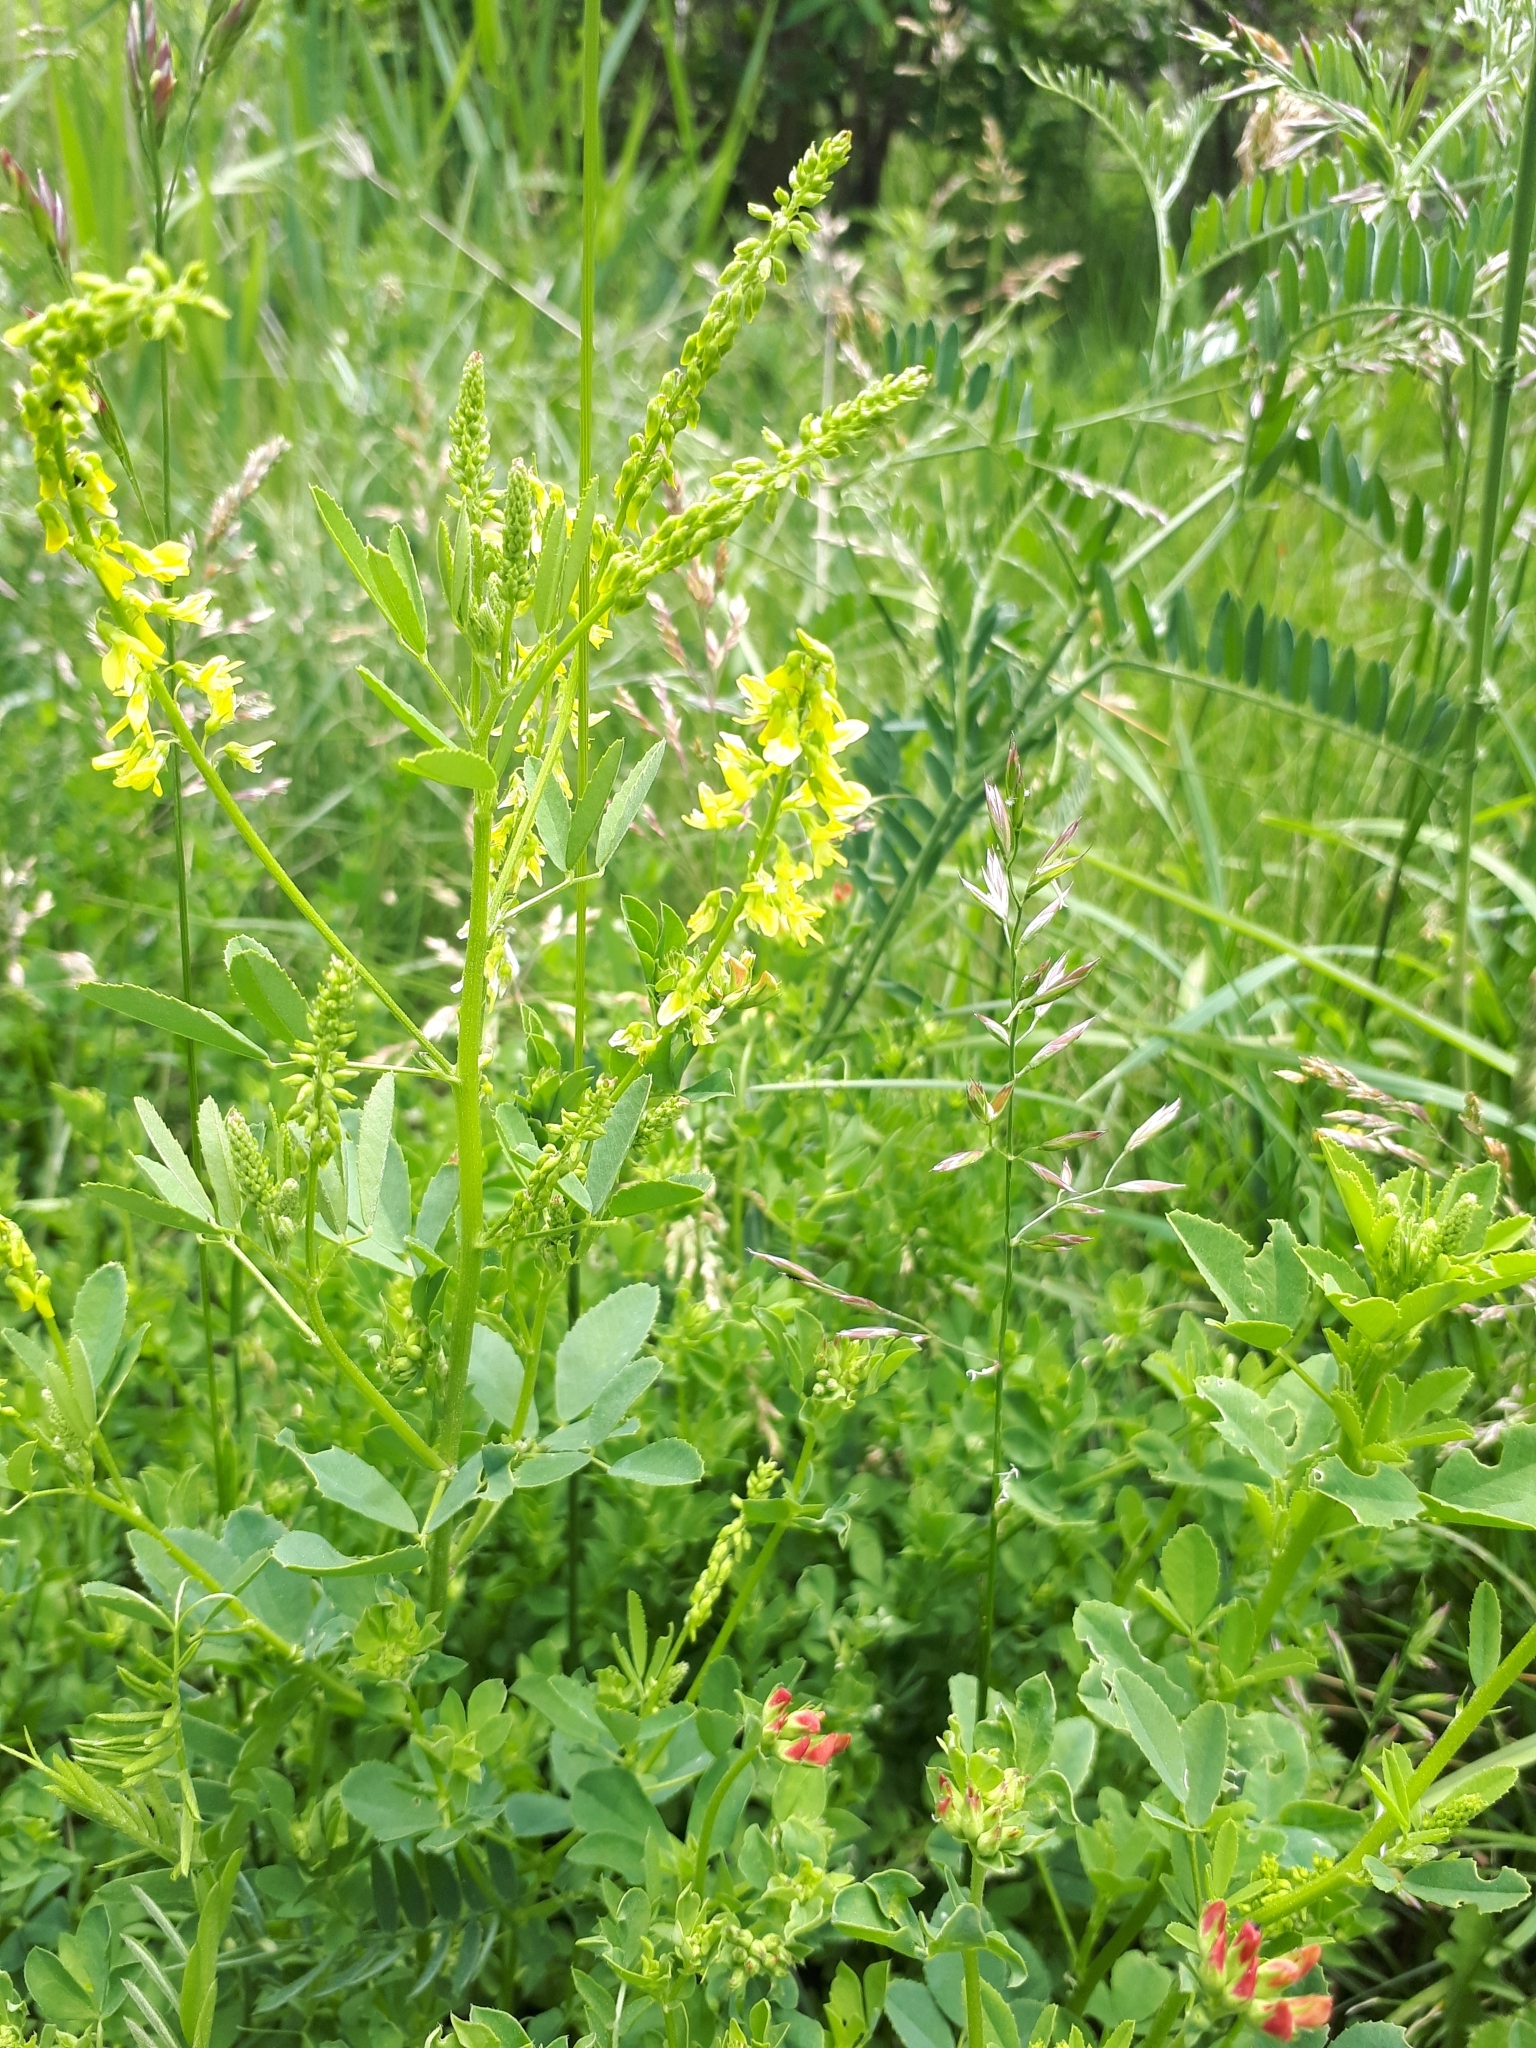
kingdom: Plantae
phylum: Tracheophyta
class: Magnoliopsida
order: Fabales
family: Fabaceae
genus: Melilotus
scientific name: Melilotus officinalis
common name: Sweetclover
